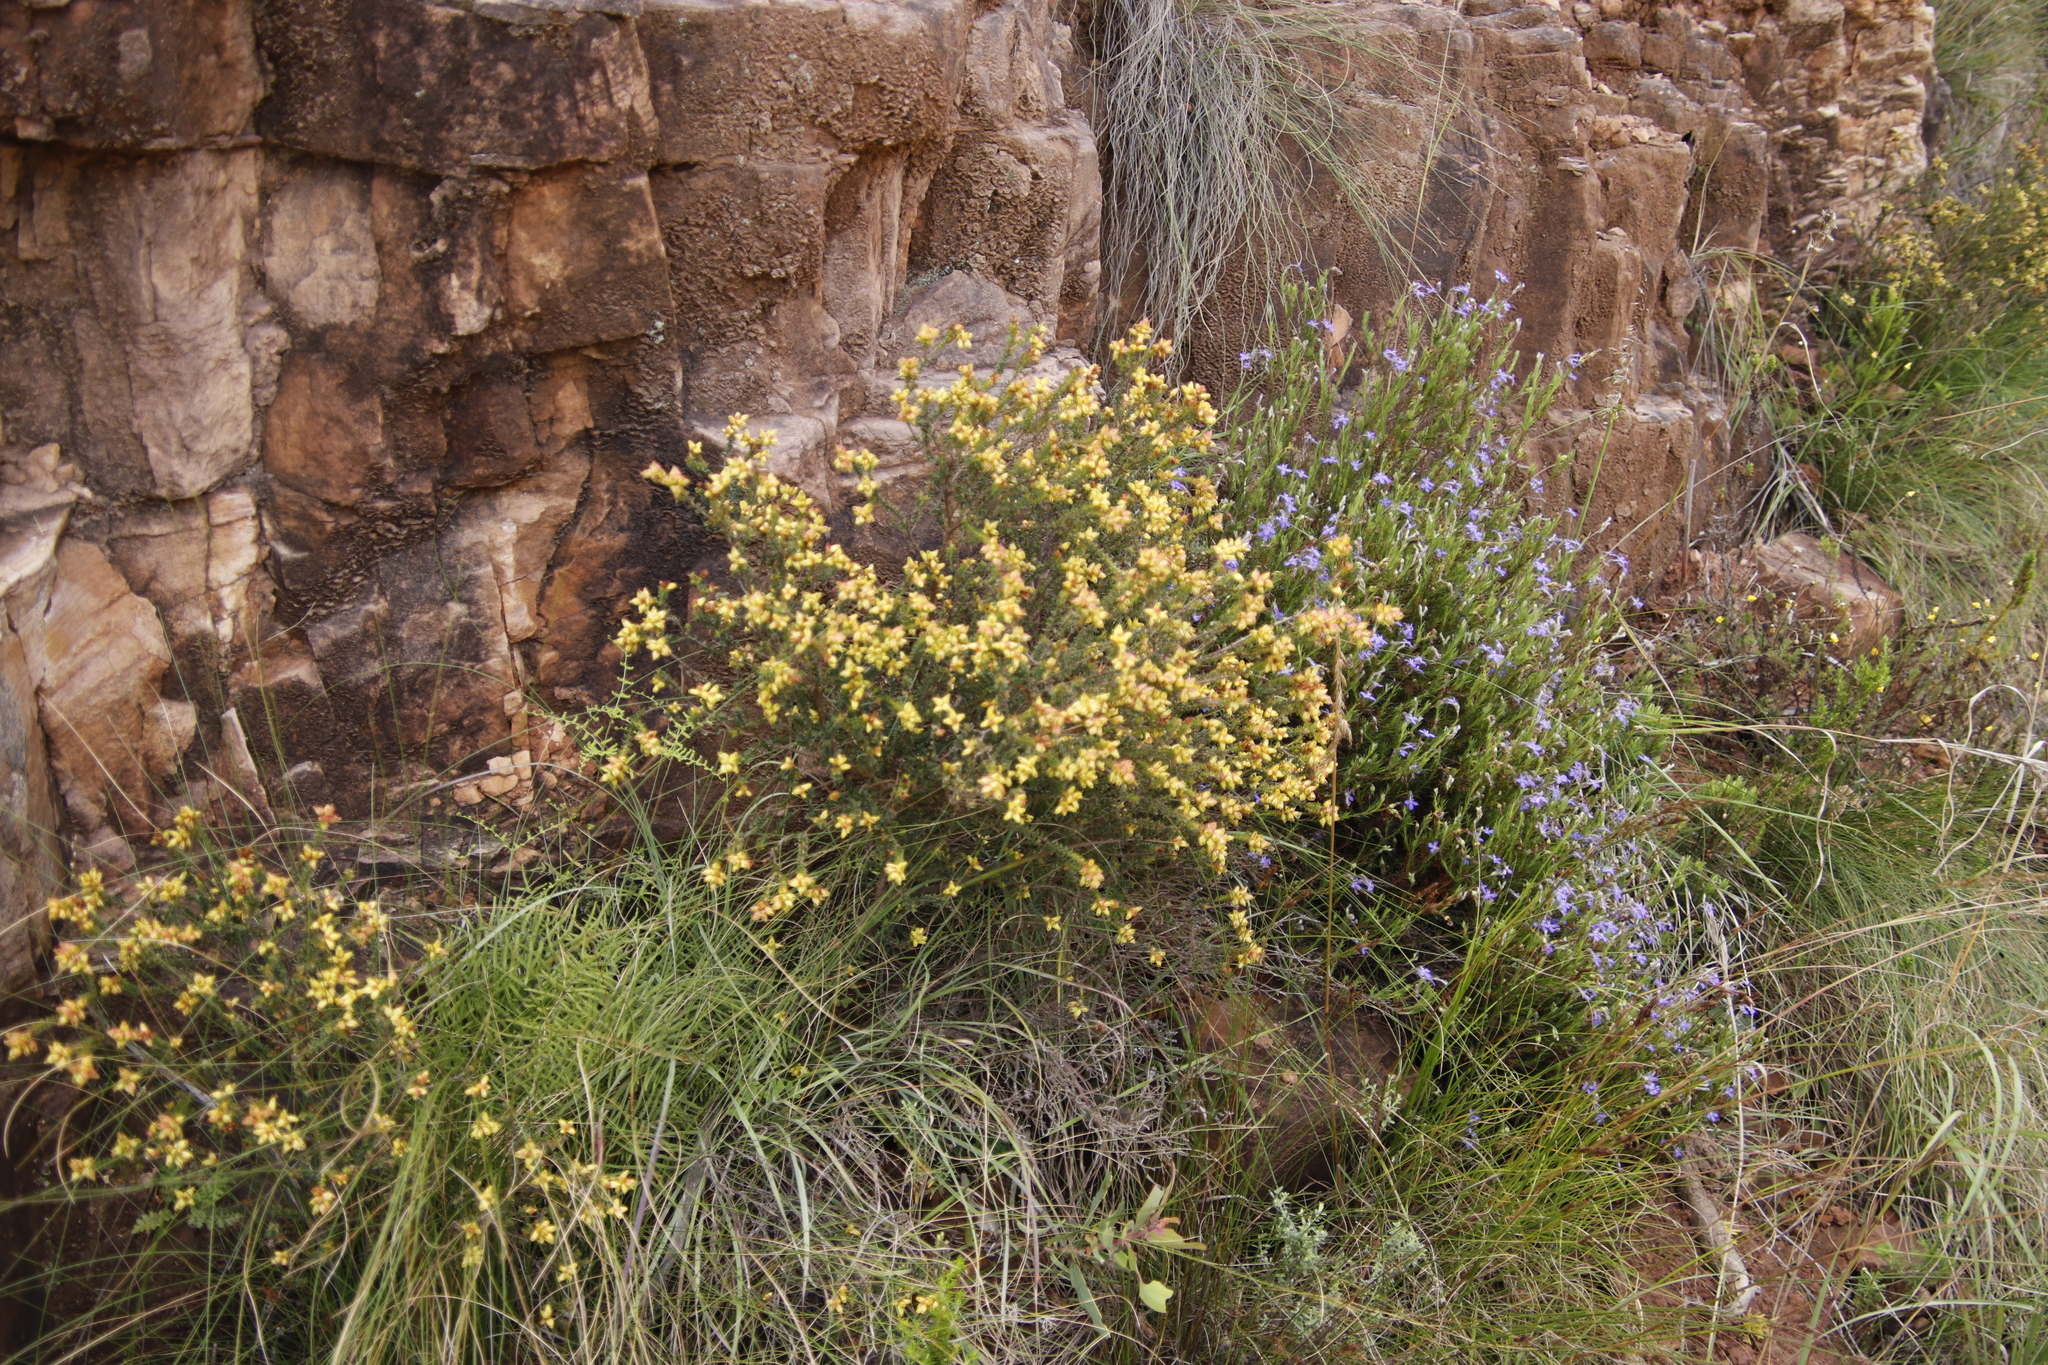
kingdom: Plantae
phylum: Tracheophyta
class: Magnoliopsida
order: Myrtales
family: Penaeaceae
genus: Penaea
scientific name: Penaea mucronata
